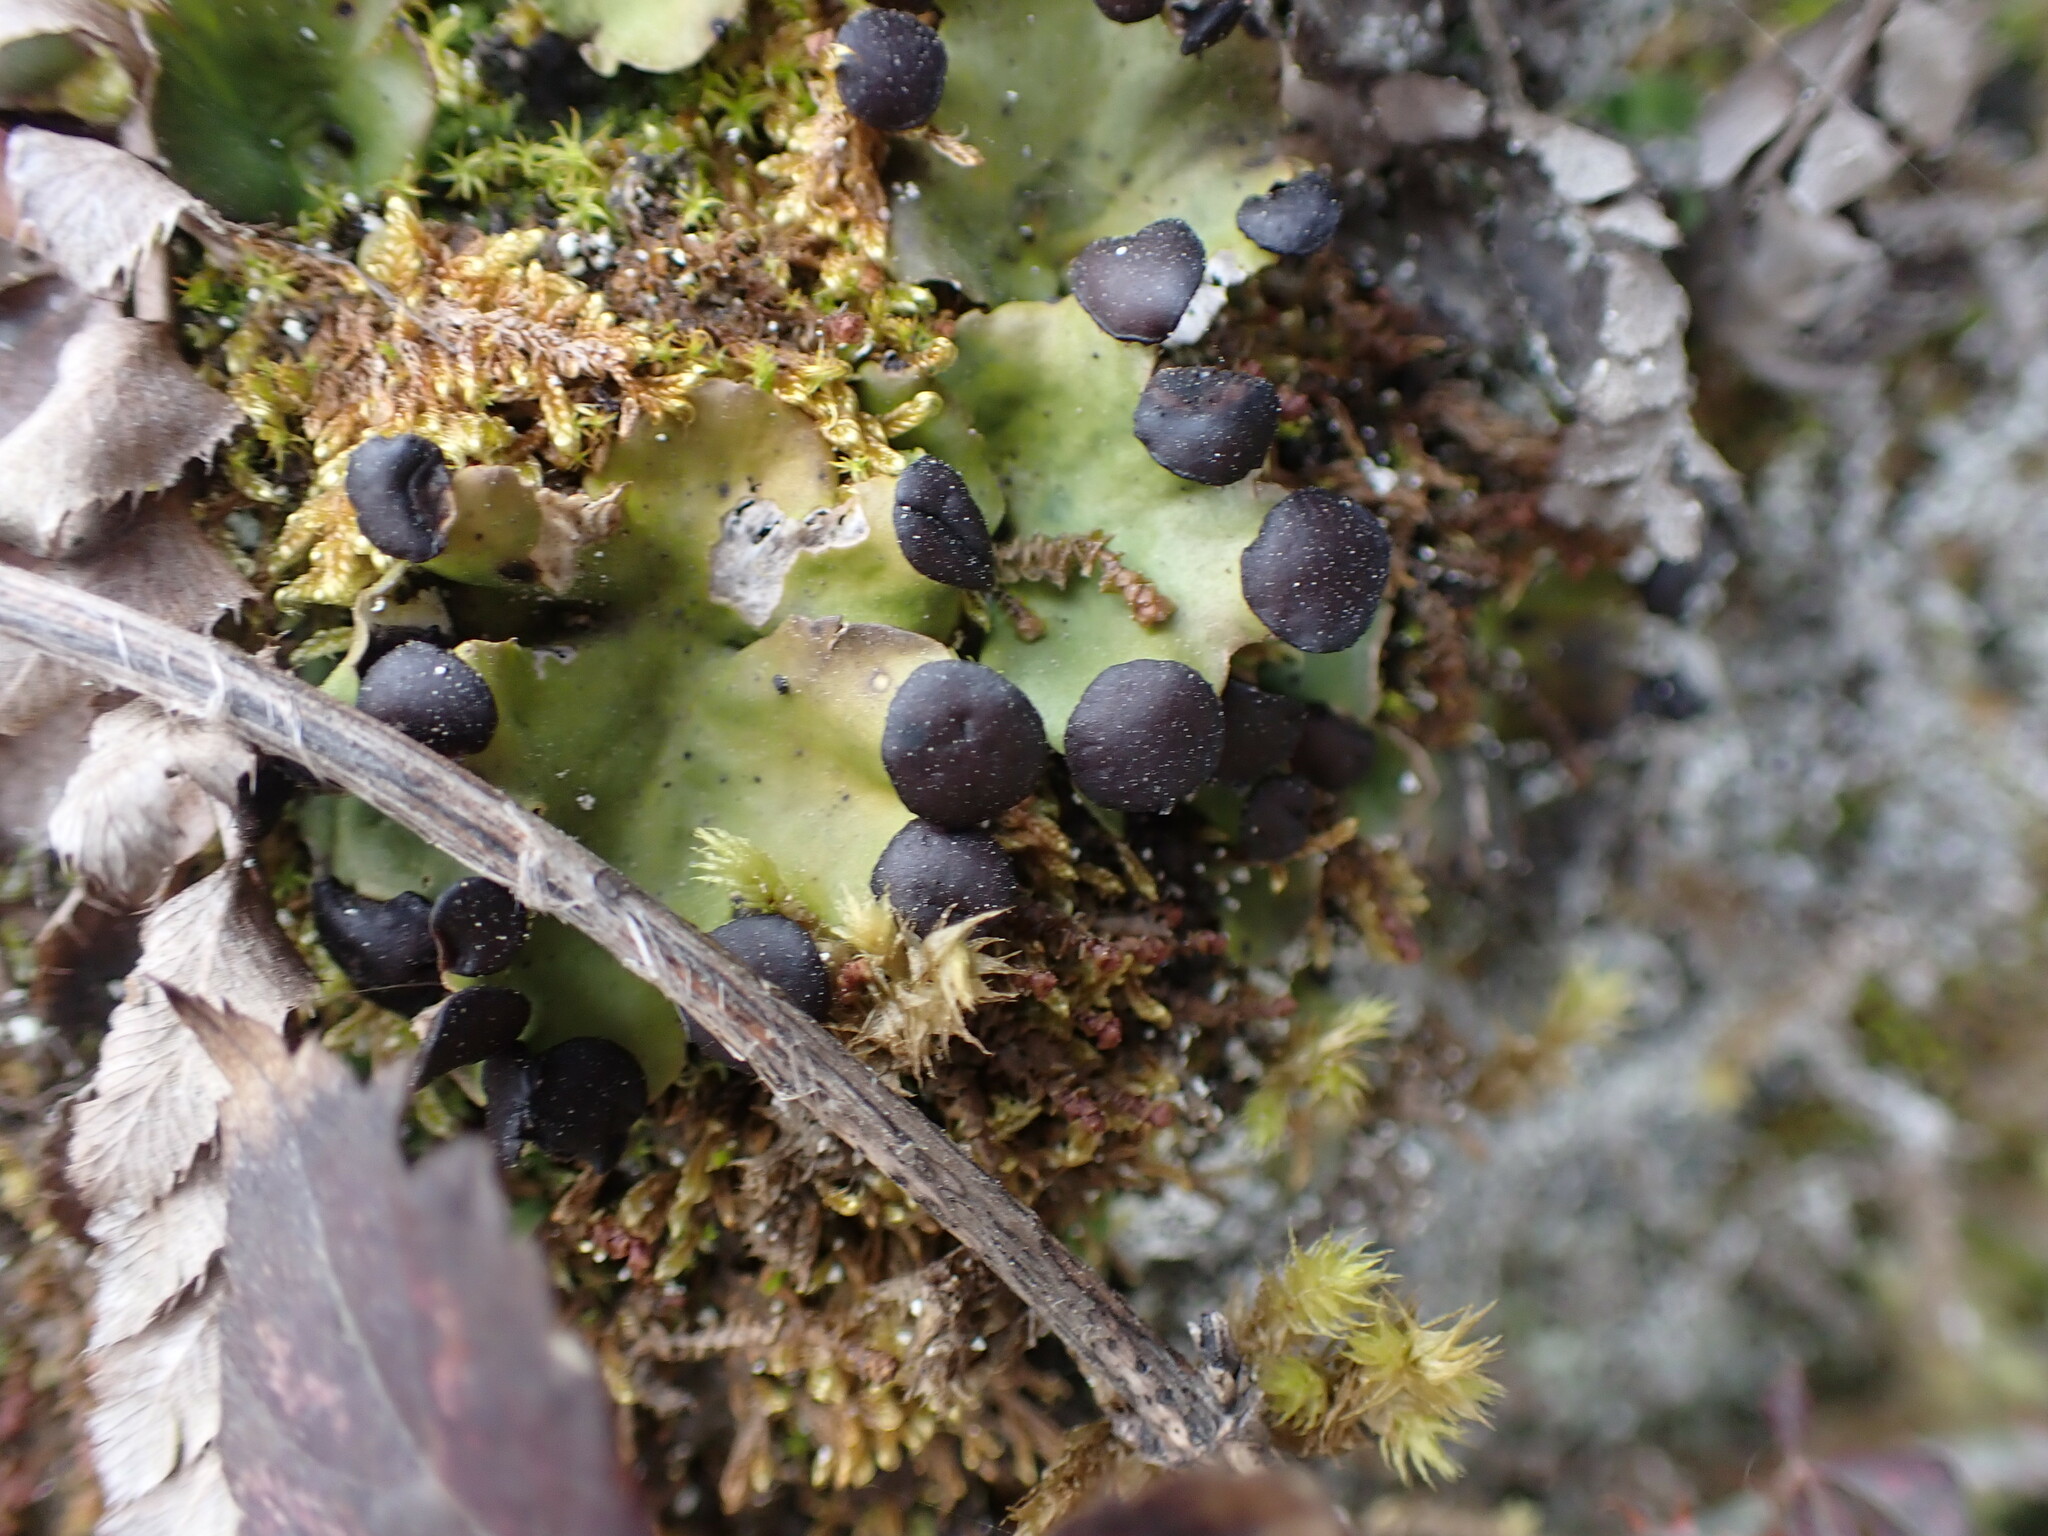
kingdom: Fungi
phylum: Ascomycota
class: Lecanoromycetes
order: Peltigerales
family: Peltigeraceae
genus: Peltigera
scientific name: Peltigera venosa
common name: Pixie gowns lichen
